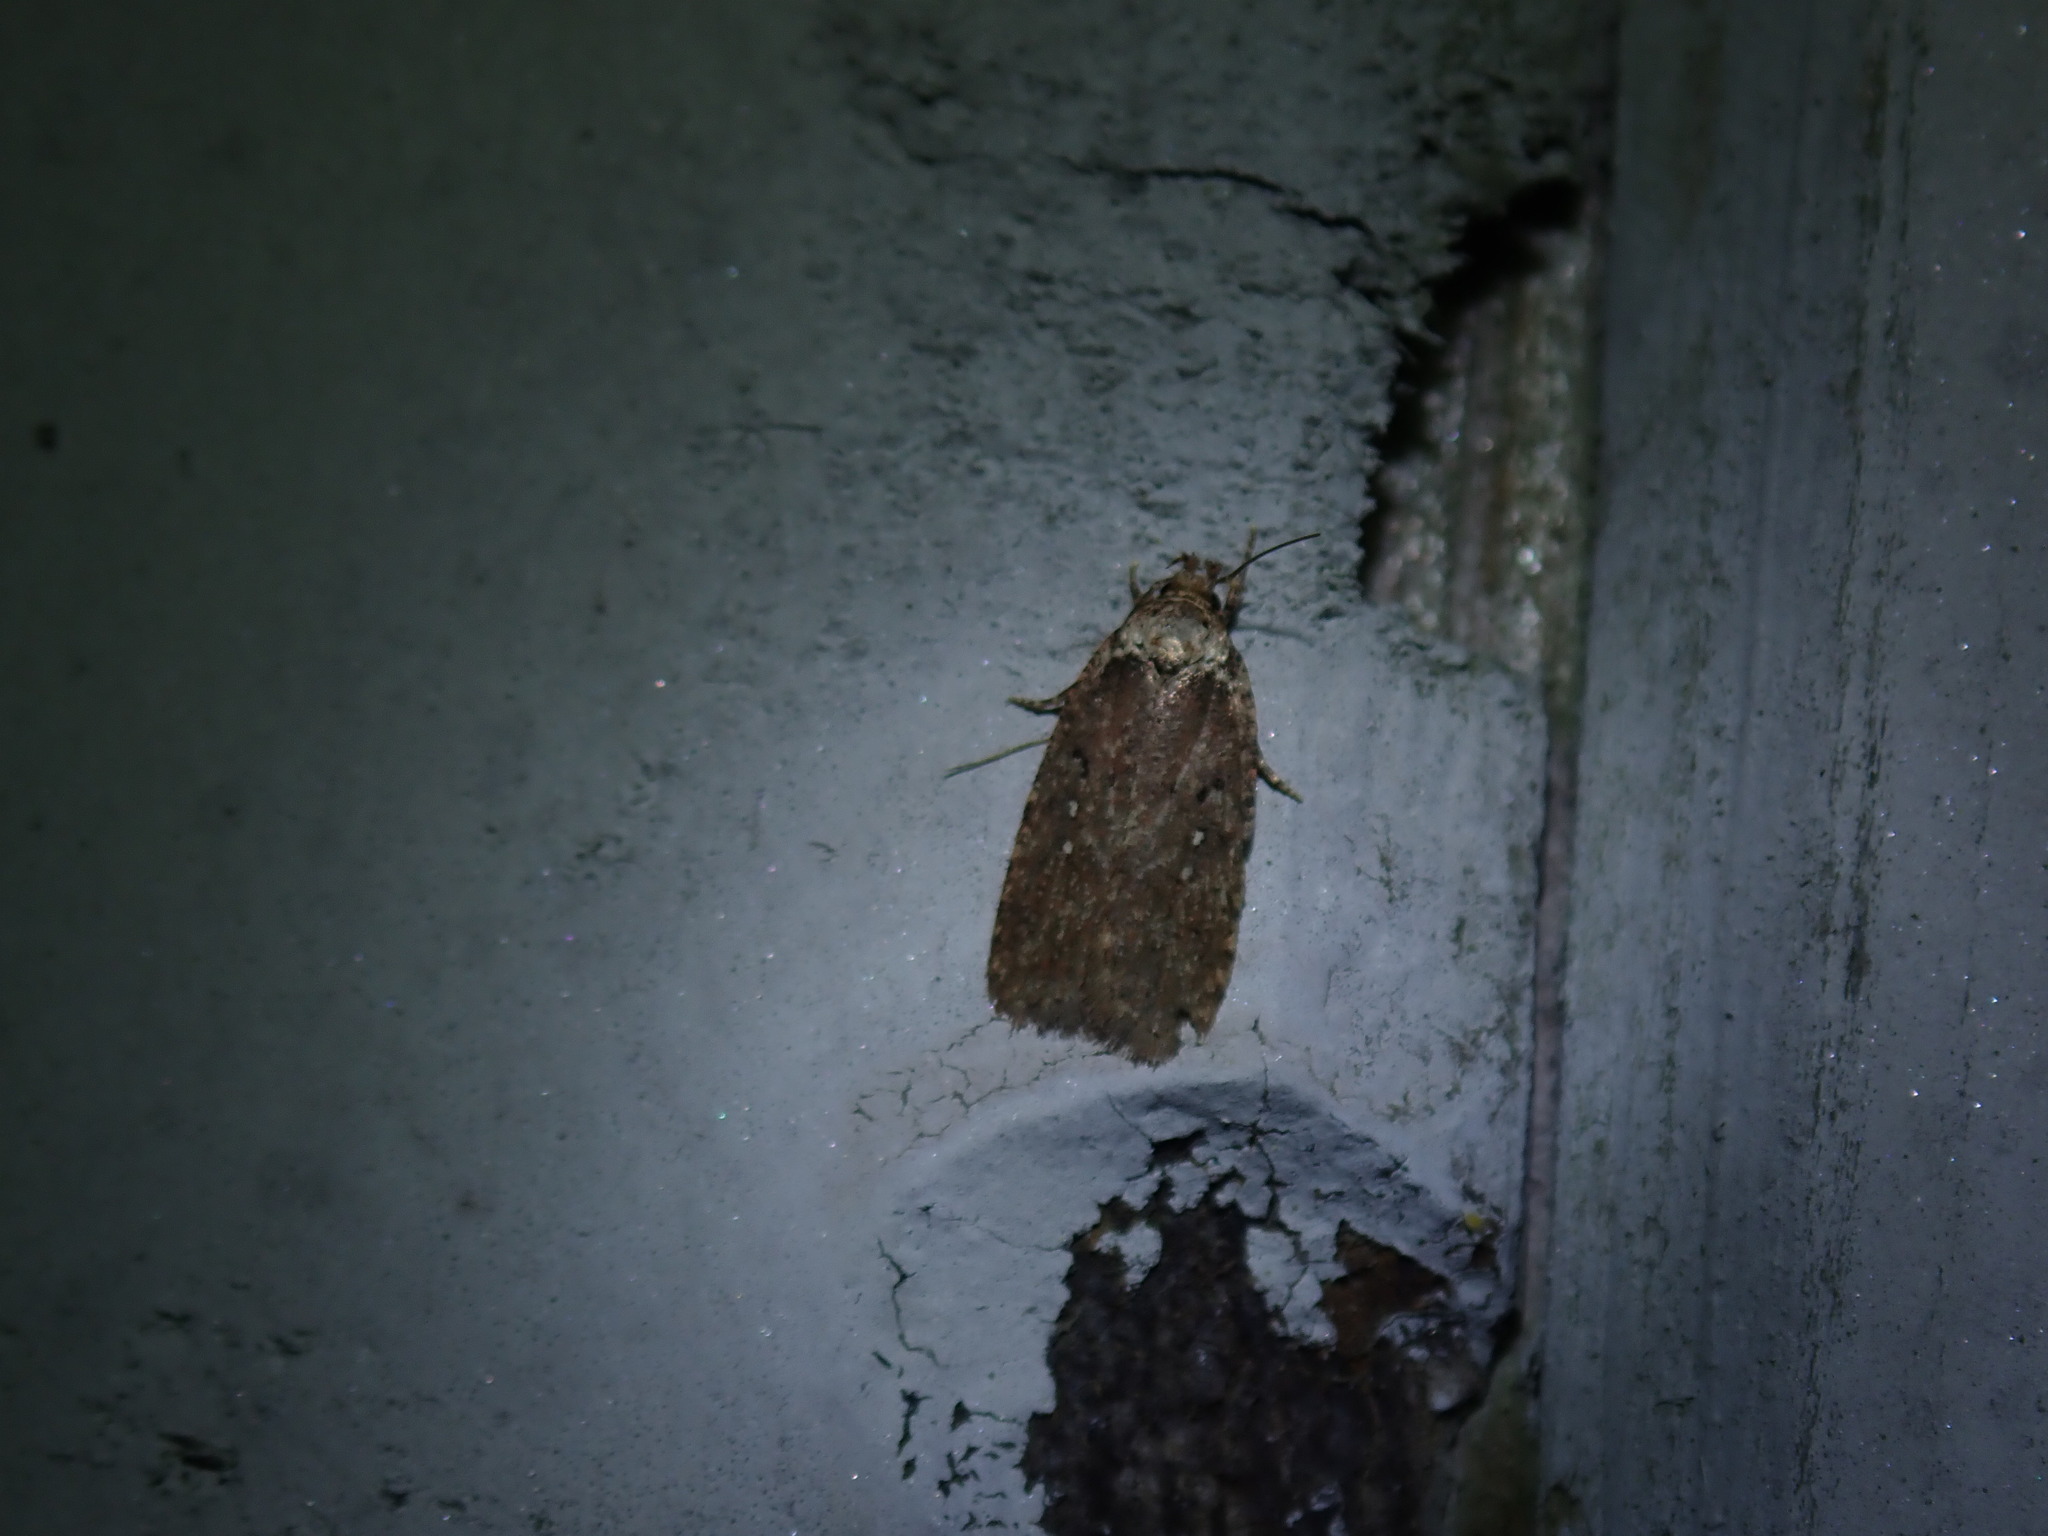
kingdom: Animalia
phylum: Arthropoda
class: Insecta
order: Lepidoptera
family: Depressariidae
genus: Agonopterix
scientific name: Agonopterix clemensella
